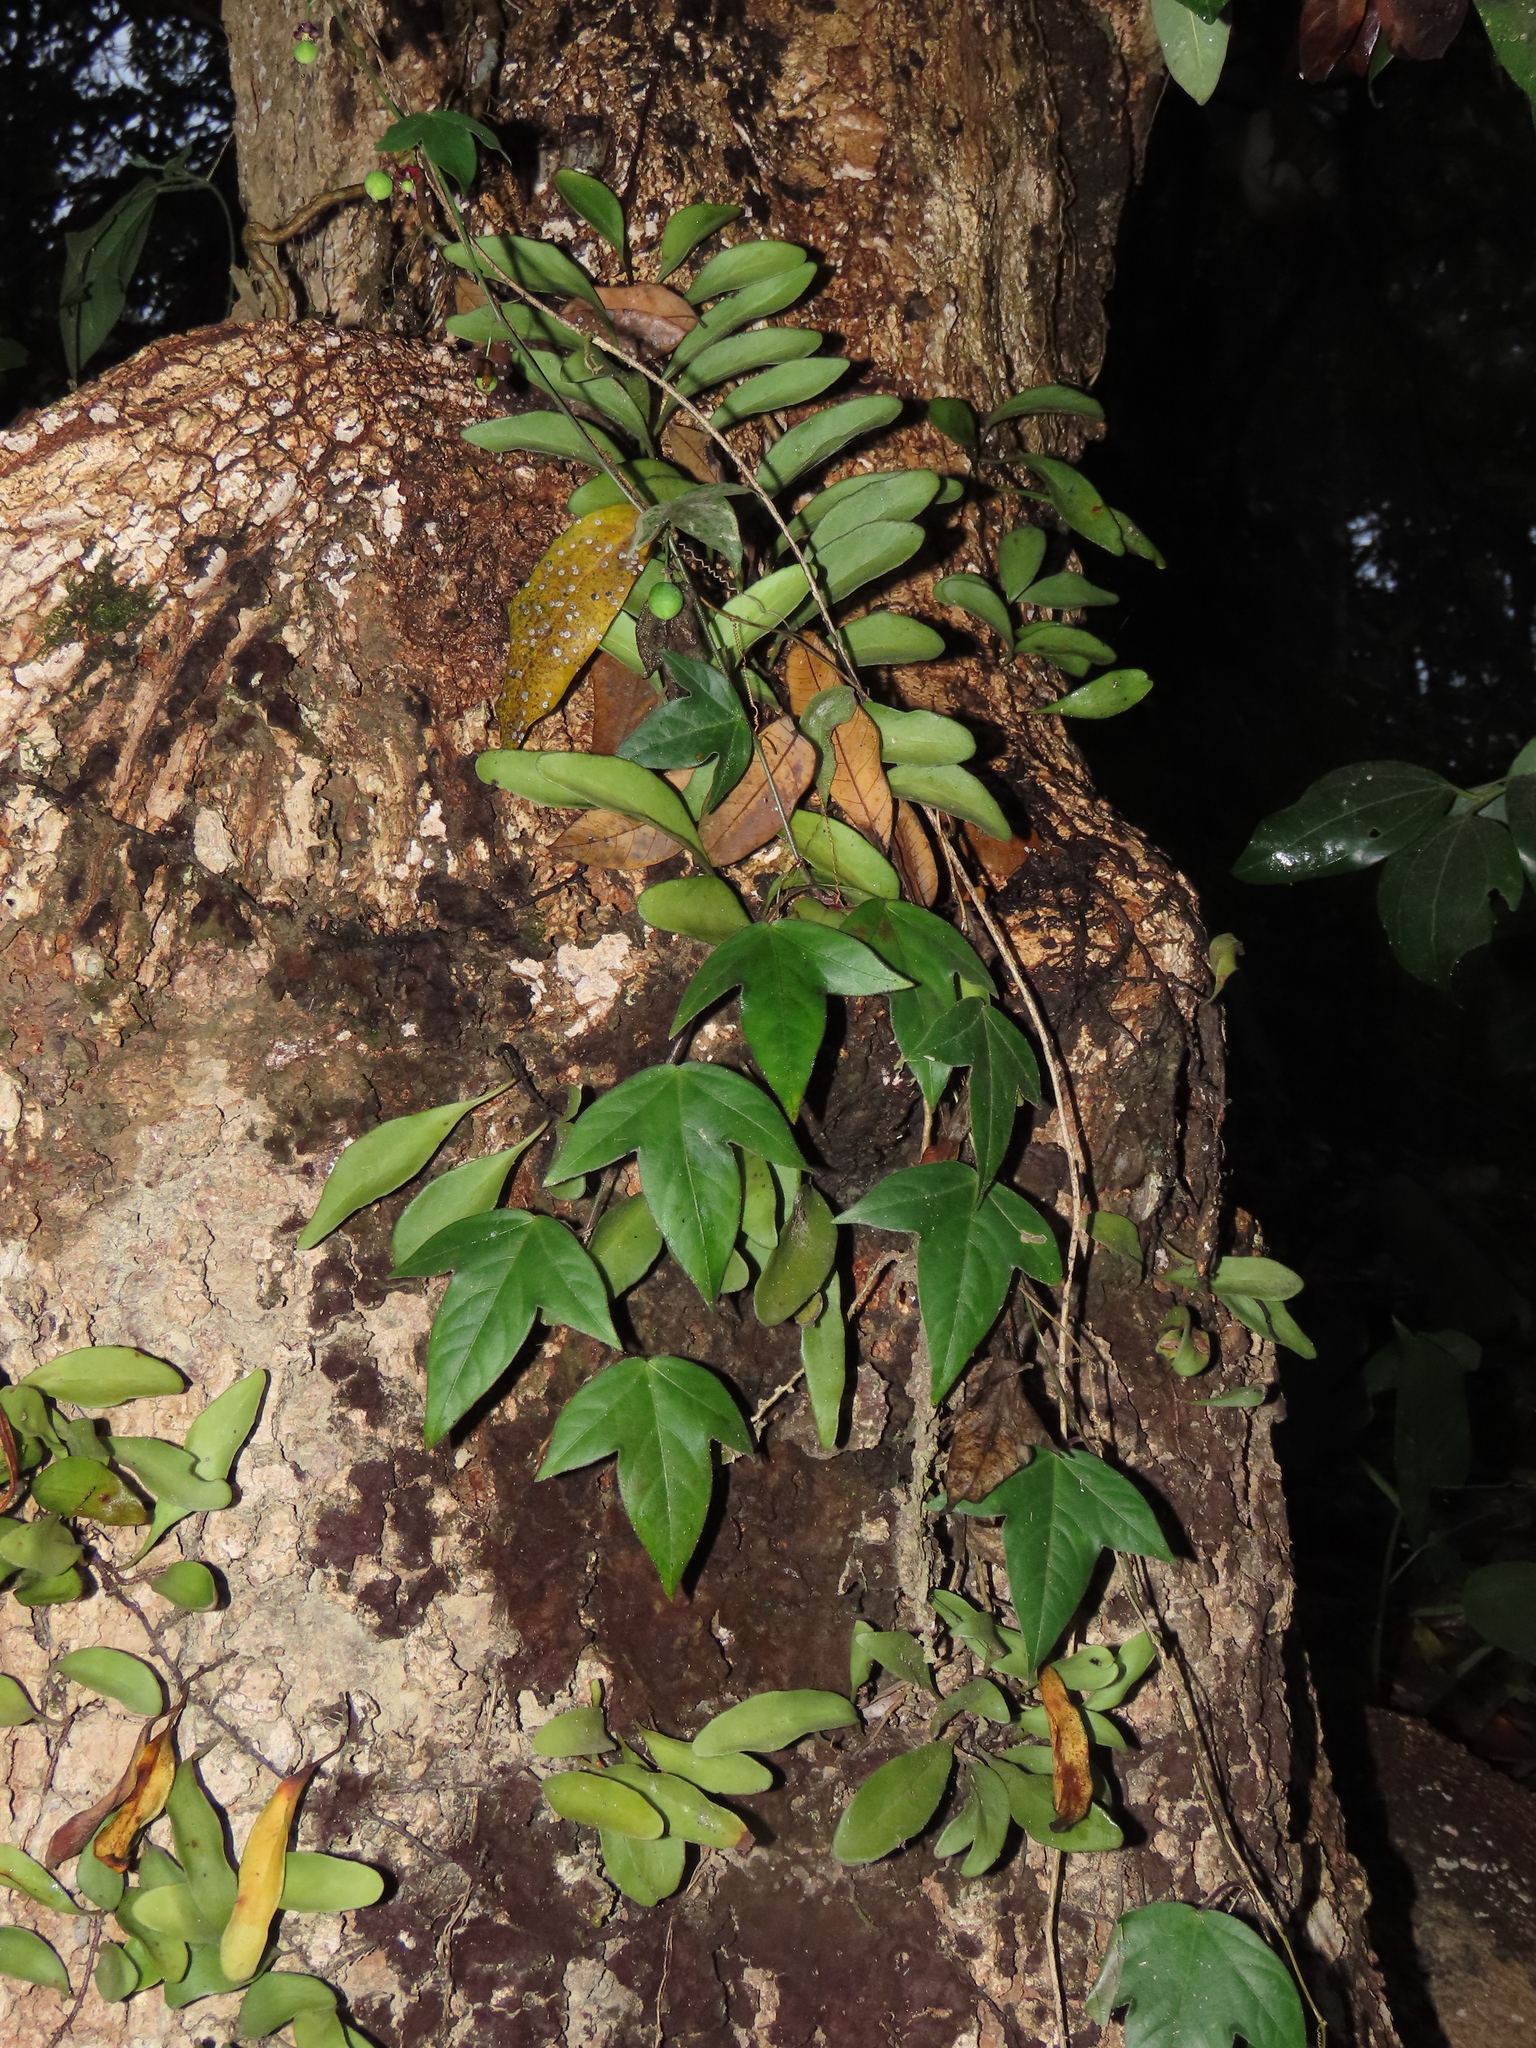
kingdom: Plantae
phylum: Tracheophyta
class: Magnoliopsida
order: Malpighiales
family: Passifloraceae
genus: Passiflora
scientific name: Passiflora suberosa
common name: Wild passionfruit
